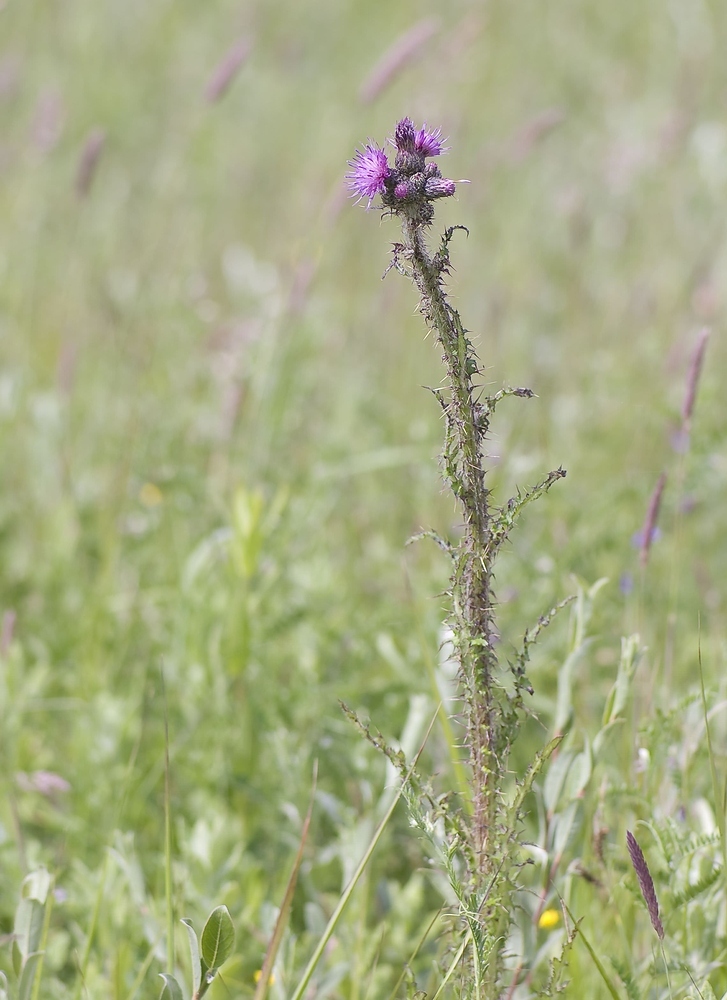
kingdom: Plantae
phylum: Tracheophyta
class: Magnoliopsida
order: Asterales
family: Asteraceae
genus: Cirsium
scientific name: Cirsium palustre
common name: Marsh thistle
